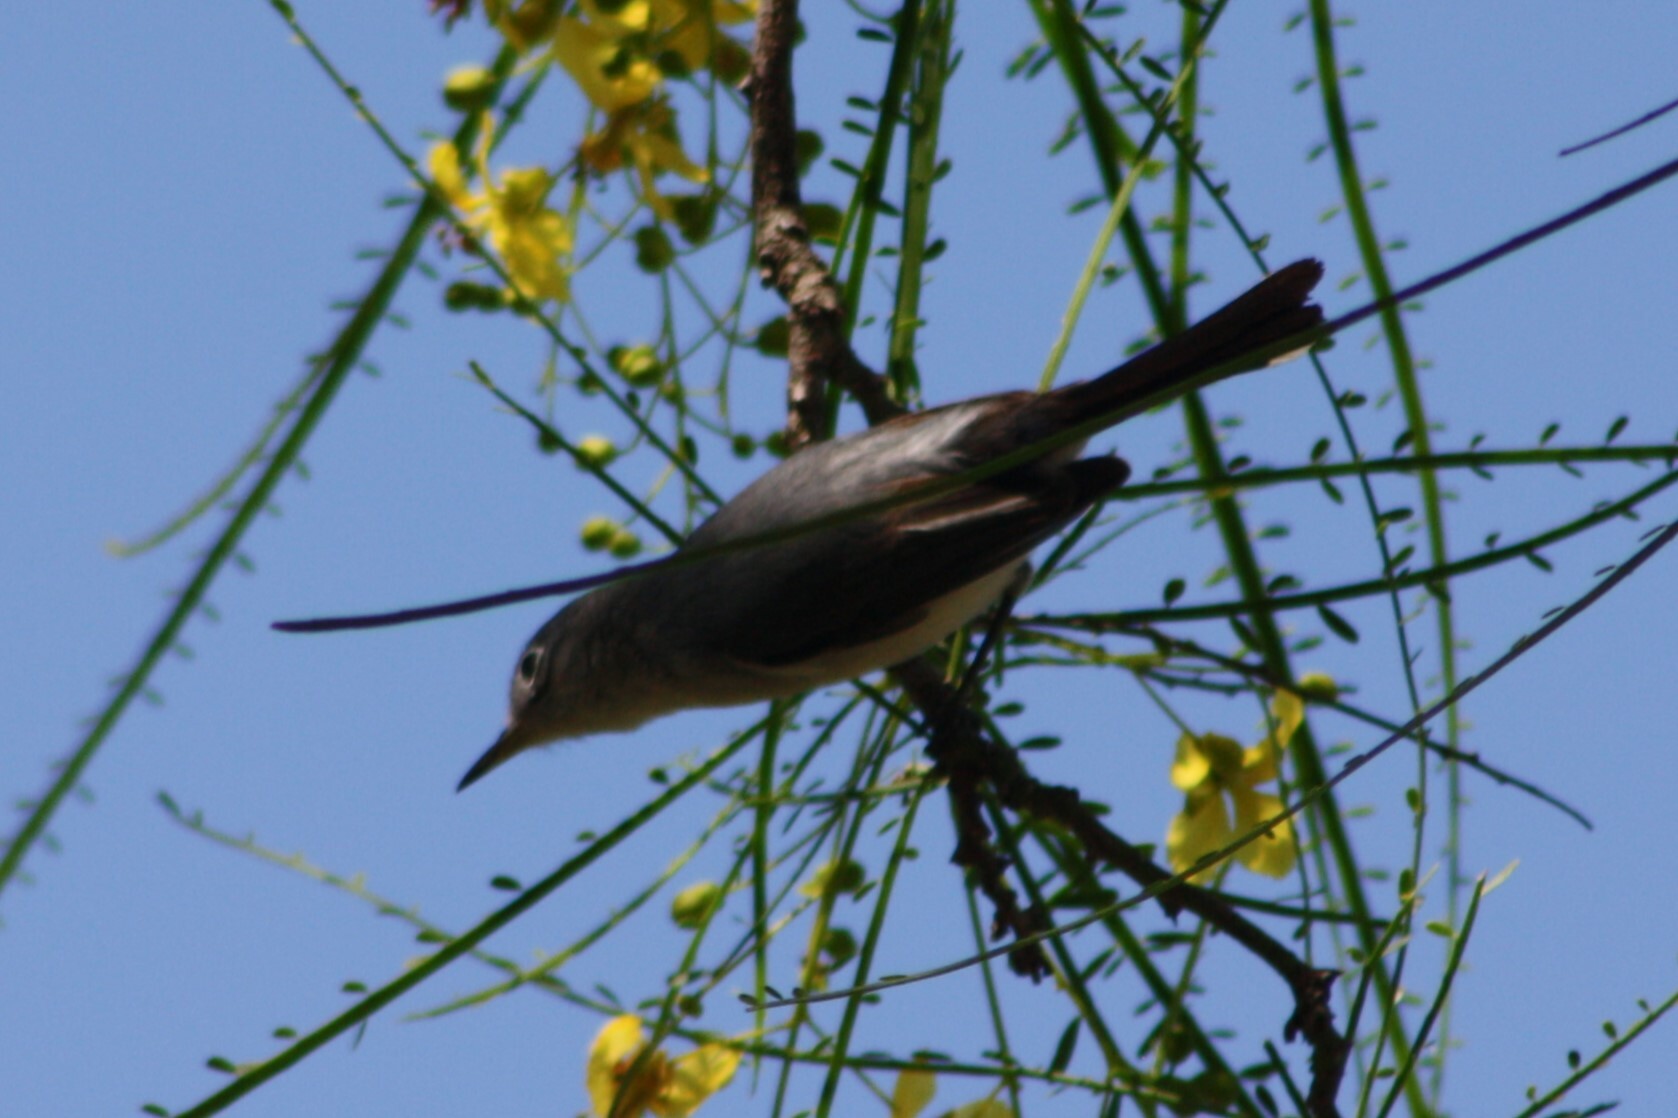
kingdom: Animalia
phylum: Chordata
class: Aves
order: Passeriformes
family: Polioptilidae
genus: Polioptila
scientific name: Polioptila caerulea
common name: Blue-gray gnatcatcher
